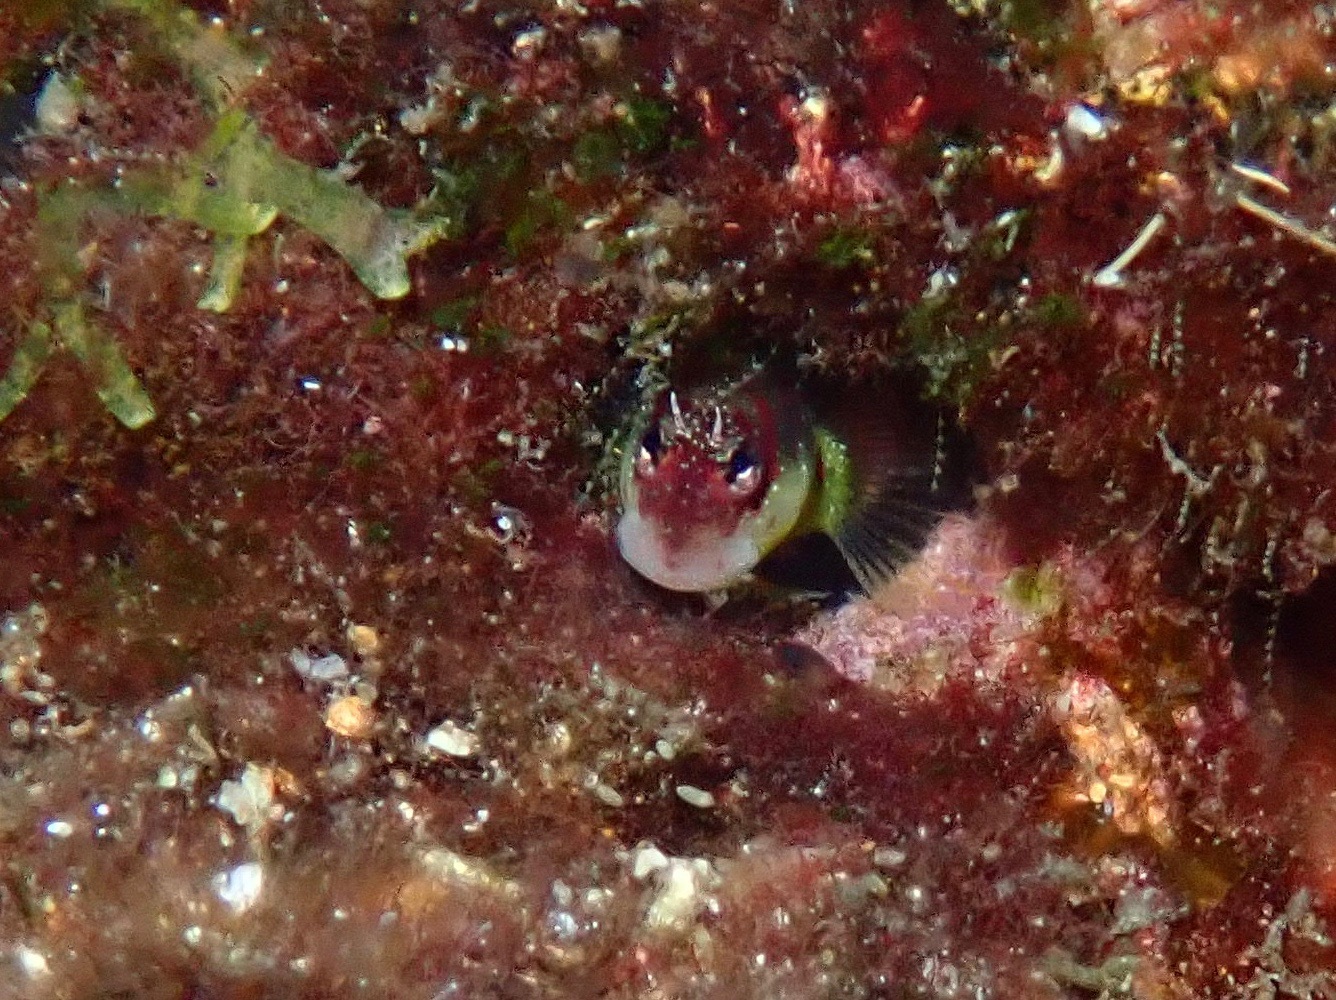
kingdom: Animalia
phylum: Chordata
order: Perciformes
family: Blenniidae
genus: Nannosalarias
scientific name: Nannosalarias nativitatis
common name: Christmas blenny
